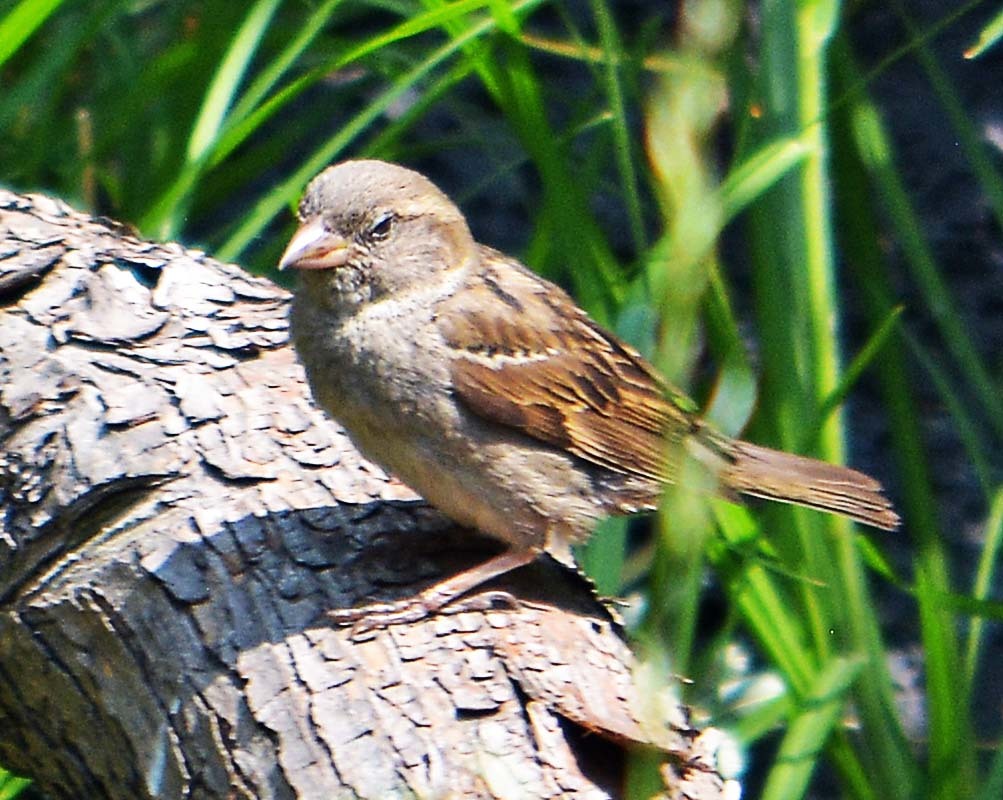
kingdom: Animalia
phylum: Chordata
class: Aves
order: Passeriformes
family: Passeridae
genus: Passer
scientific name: Passer domesticus
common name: House sparrow
